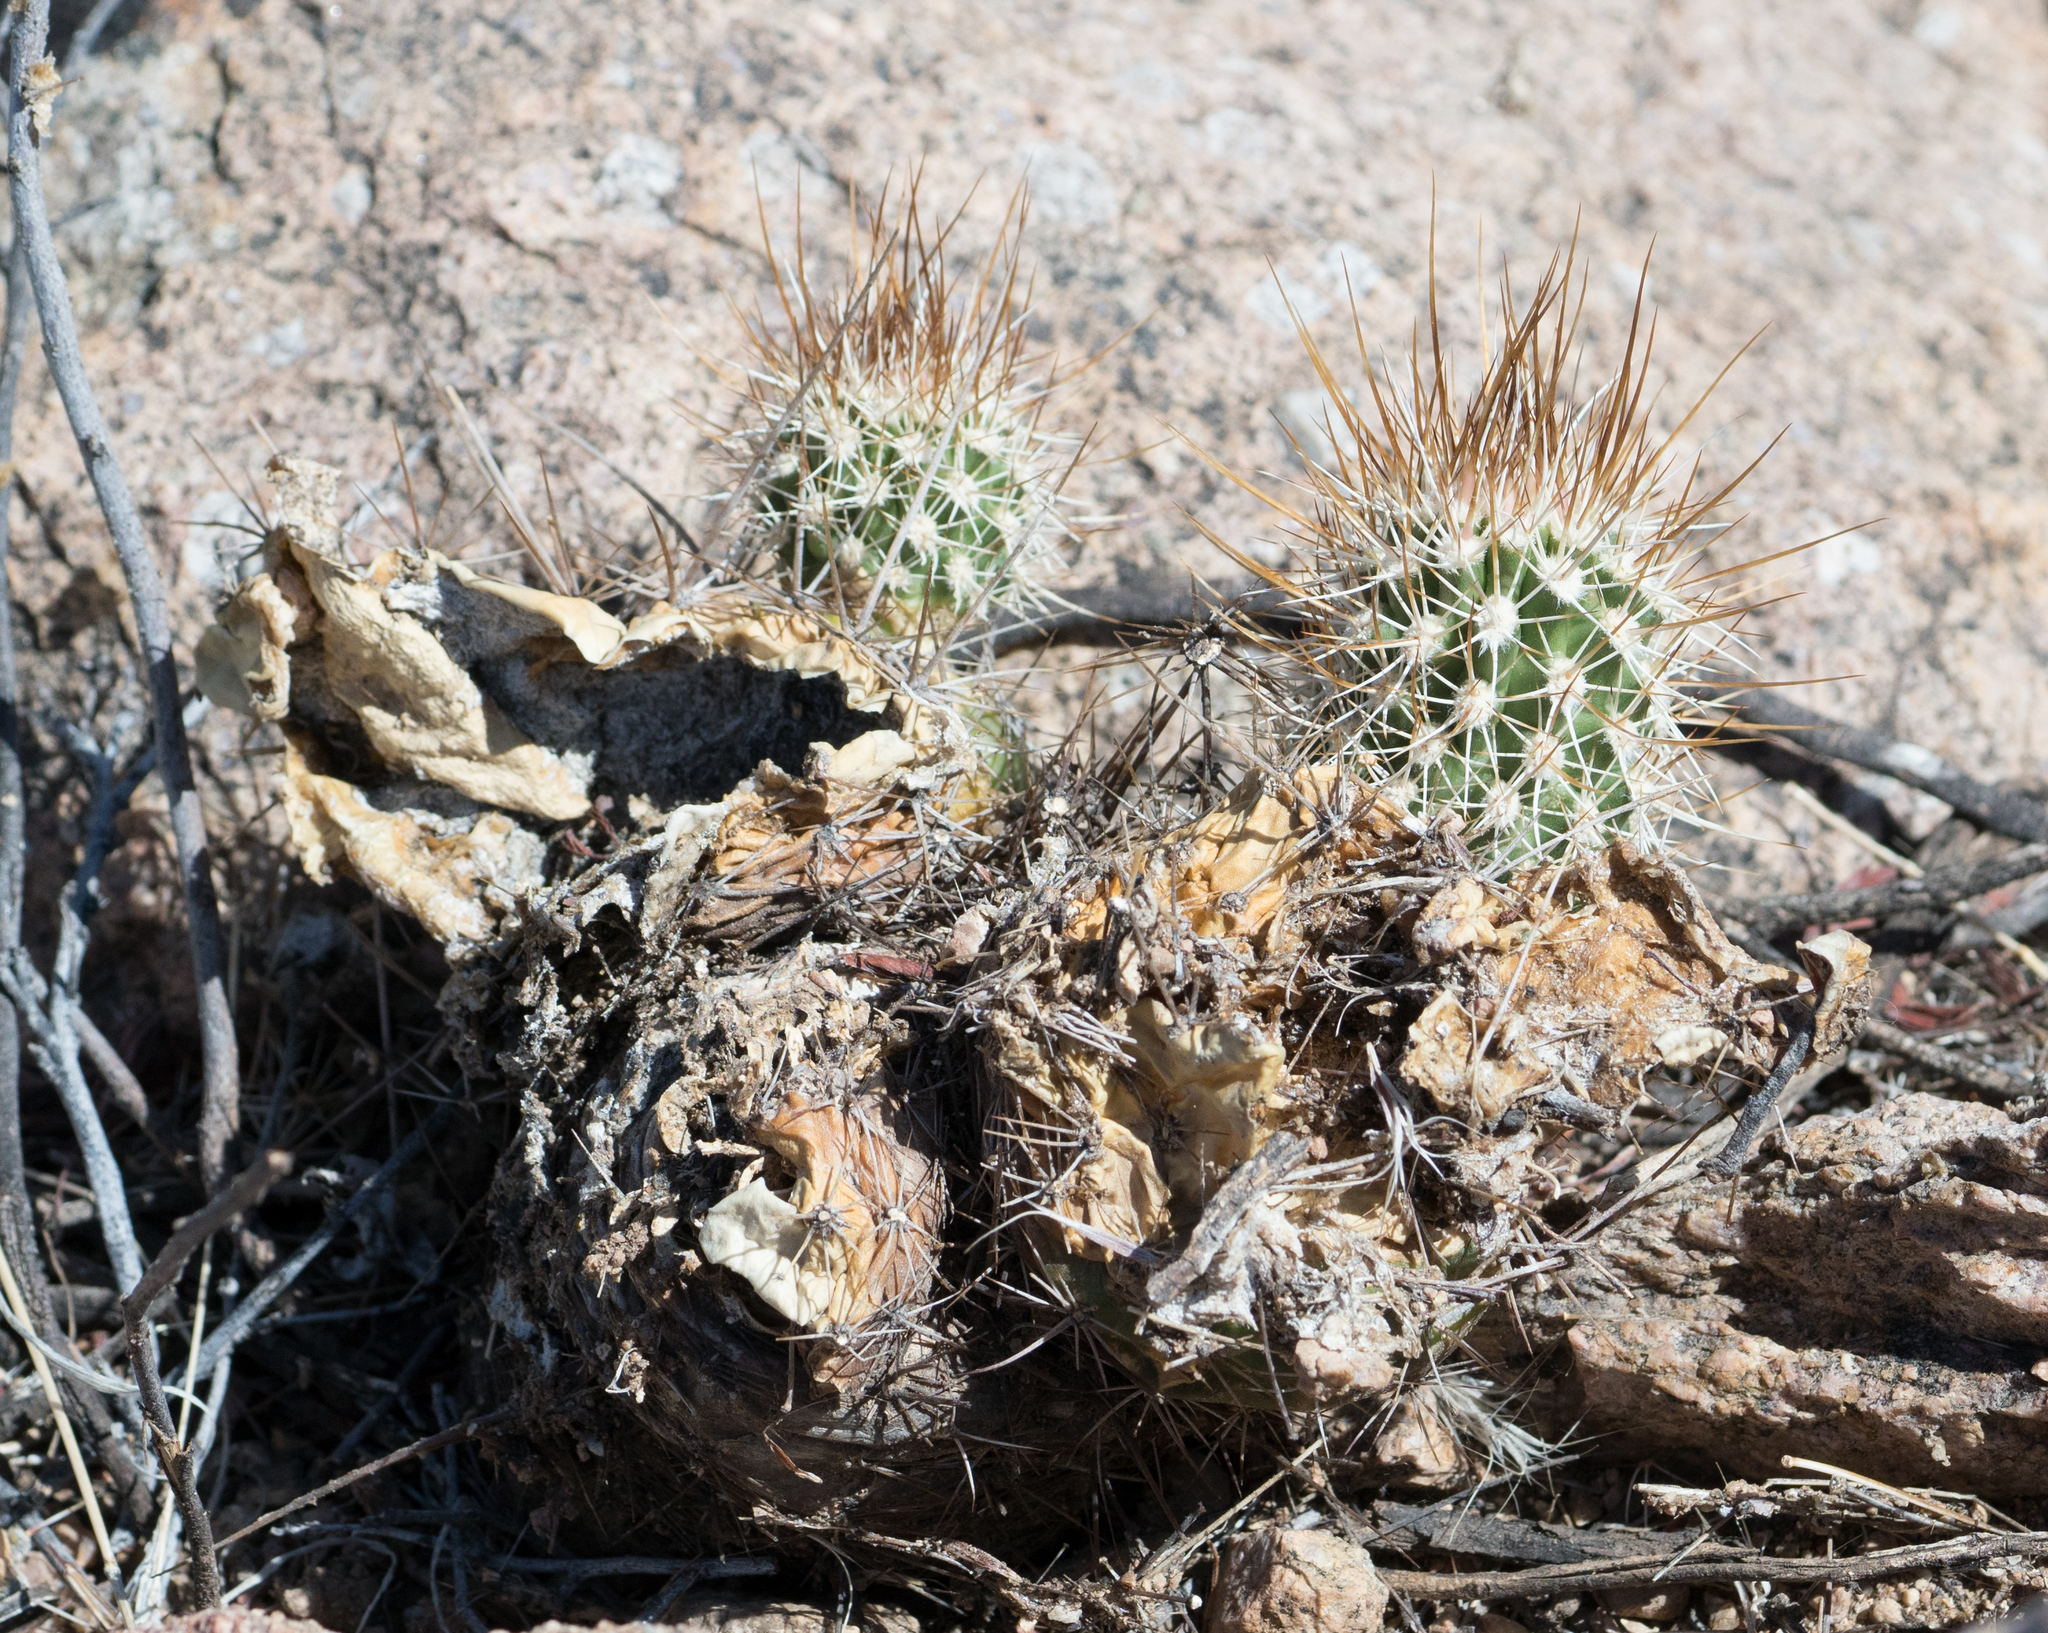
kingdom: Plantae
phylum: Tracheophyta
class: Magnoliopsida
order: Caryophyllales
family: Cactaceae
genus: Echinocereus
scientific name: Echinocereus fasciculatus
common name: Bundle hedgehog
